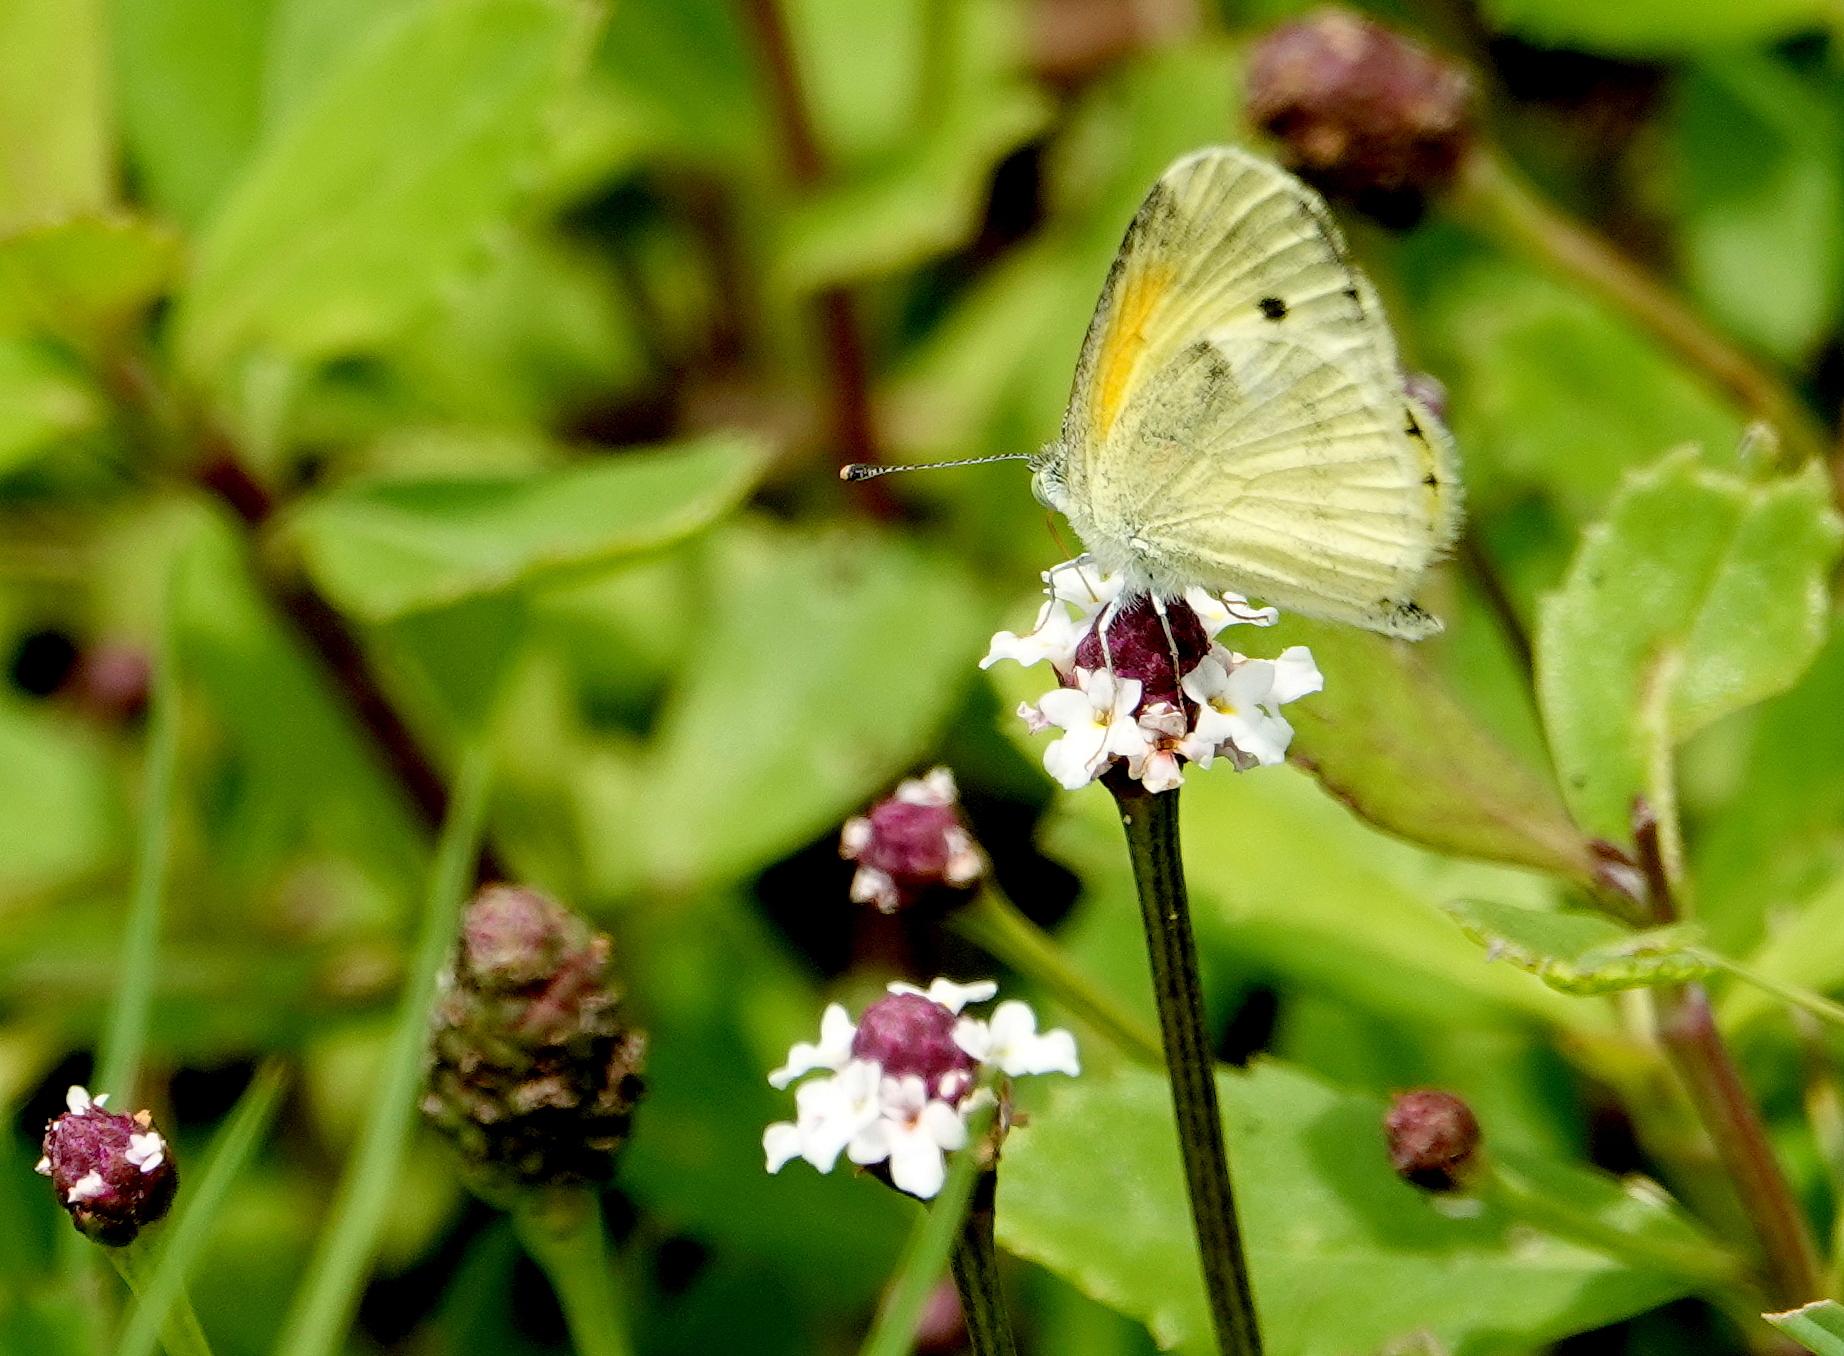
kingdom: Animalia
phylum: Arthropoda
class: Insecta
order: Lepidoptera
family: Pieridae
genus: Nathalis
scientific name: Nathalis iole
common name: Dainty sulphur
